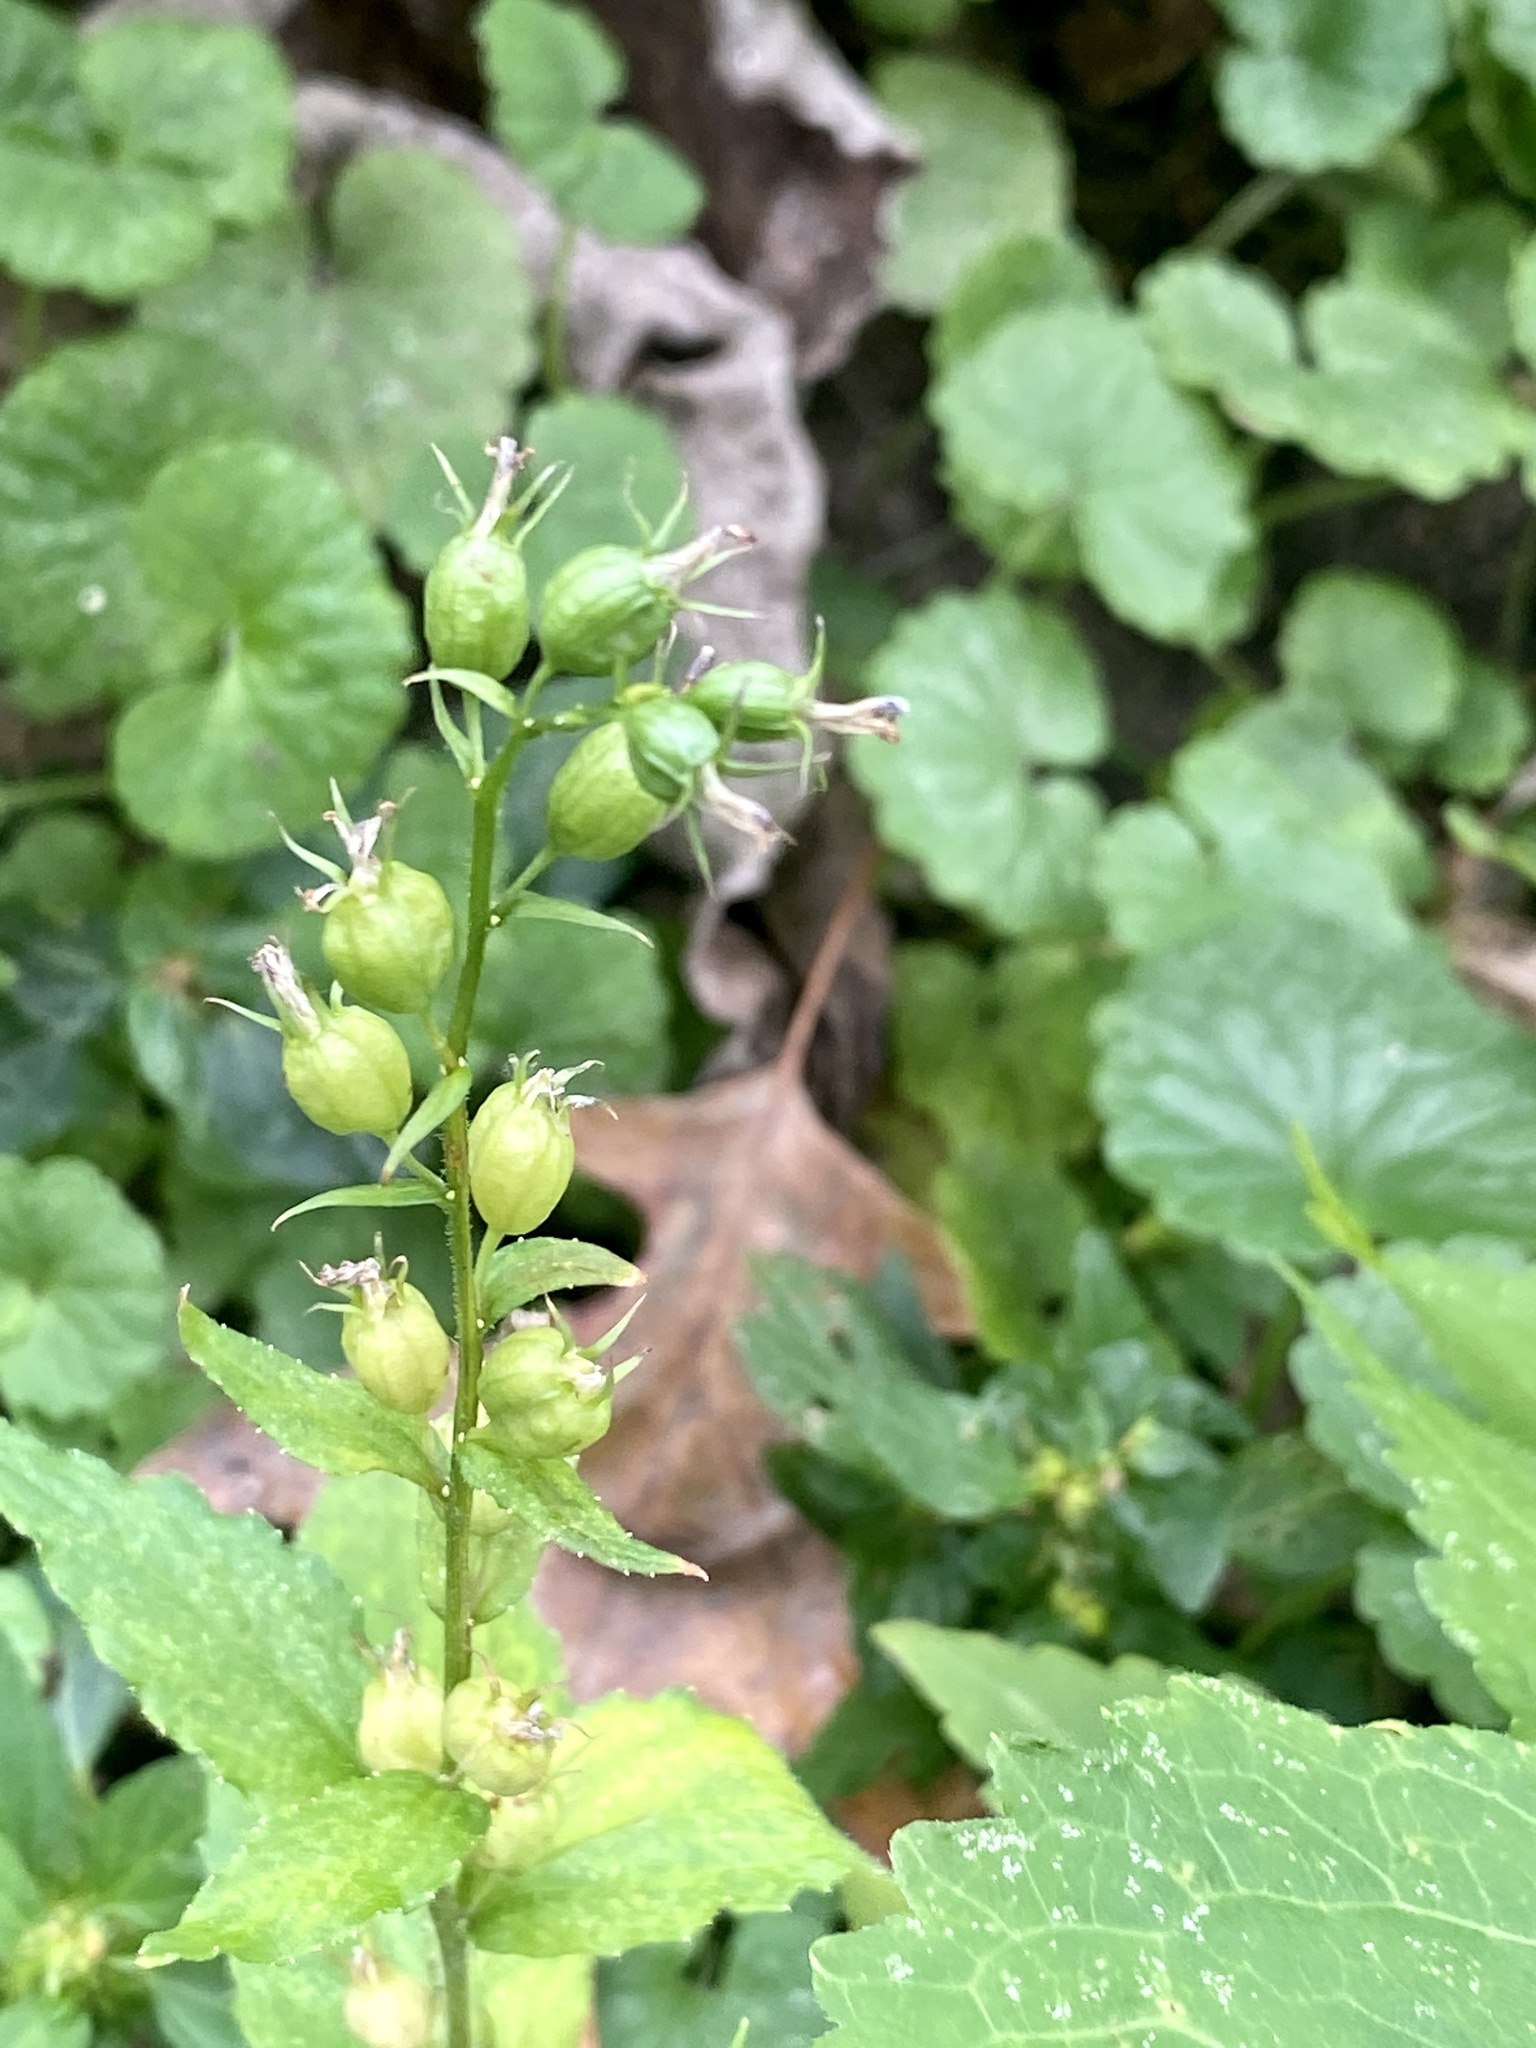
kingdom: Plantae
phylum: Tracheophyta
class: Magnoliopsida
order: Asterales
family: Campanulaceae
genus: Lobelia
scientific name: Lobelia inflata
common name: Indian tobacco
